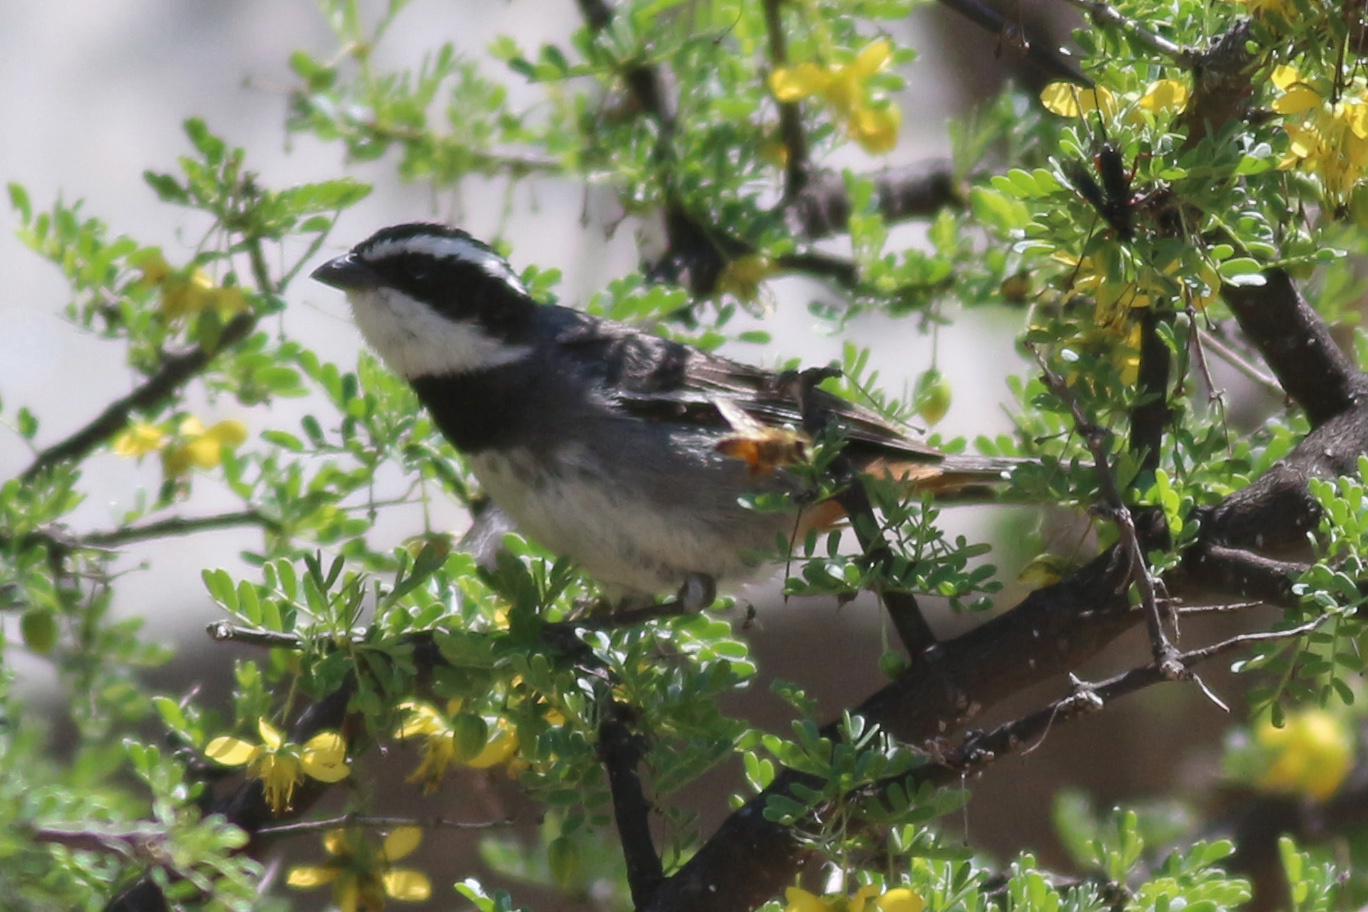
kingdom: Animalia
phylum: Chordata
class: Aves
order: Passeriformes
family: Thraupidae
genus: Microspingus
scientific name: Microspingus torquatus
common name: Ringed warbling-finch
